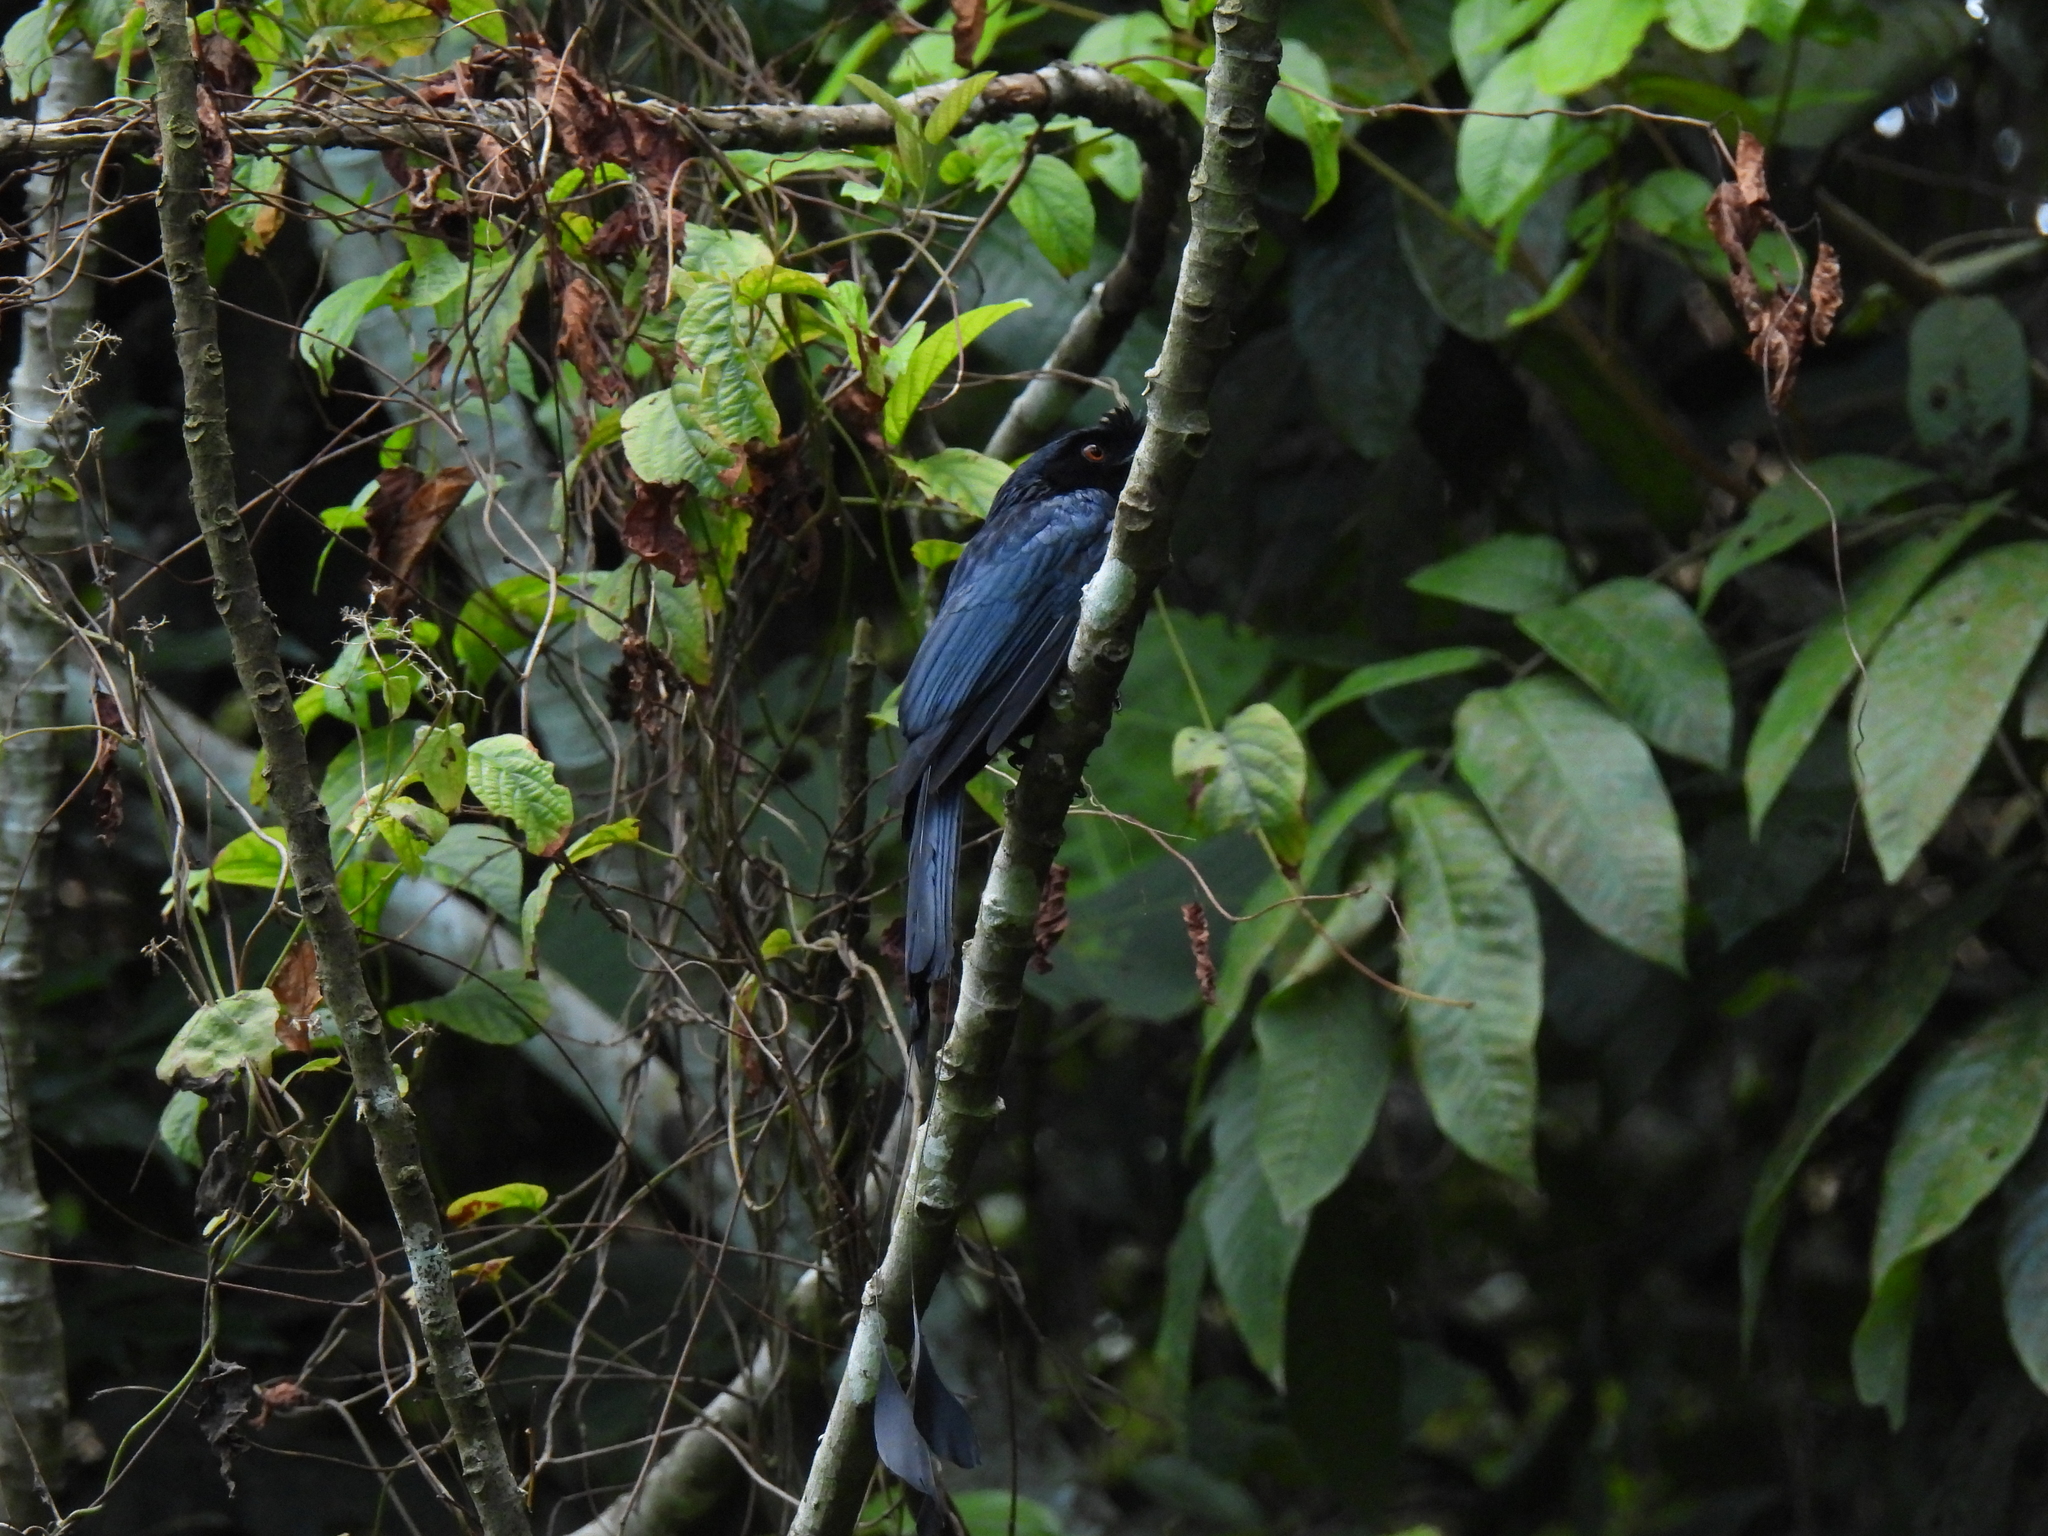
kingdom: Animalia
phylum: Chordata
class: Aves
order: Passeriformes
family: Dicruridae
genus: Dicrurus
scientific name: Dicrurus paradiseus
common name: Greater racket-tailed drongo
